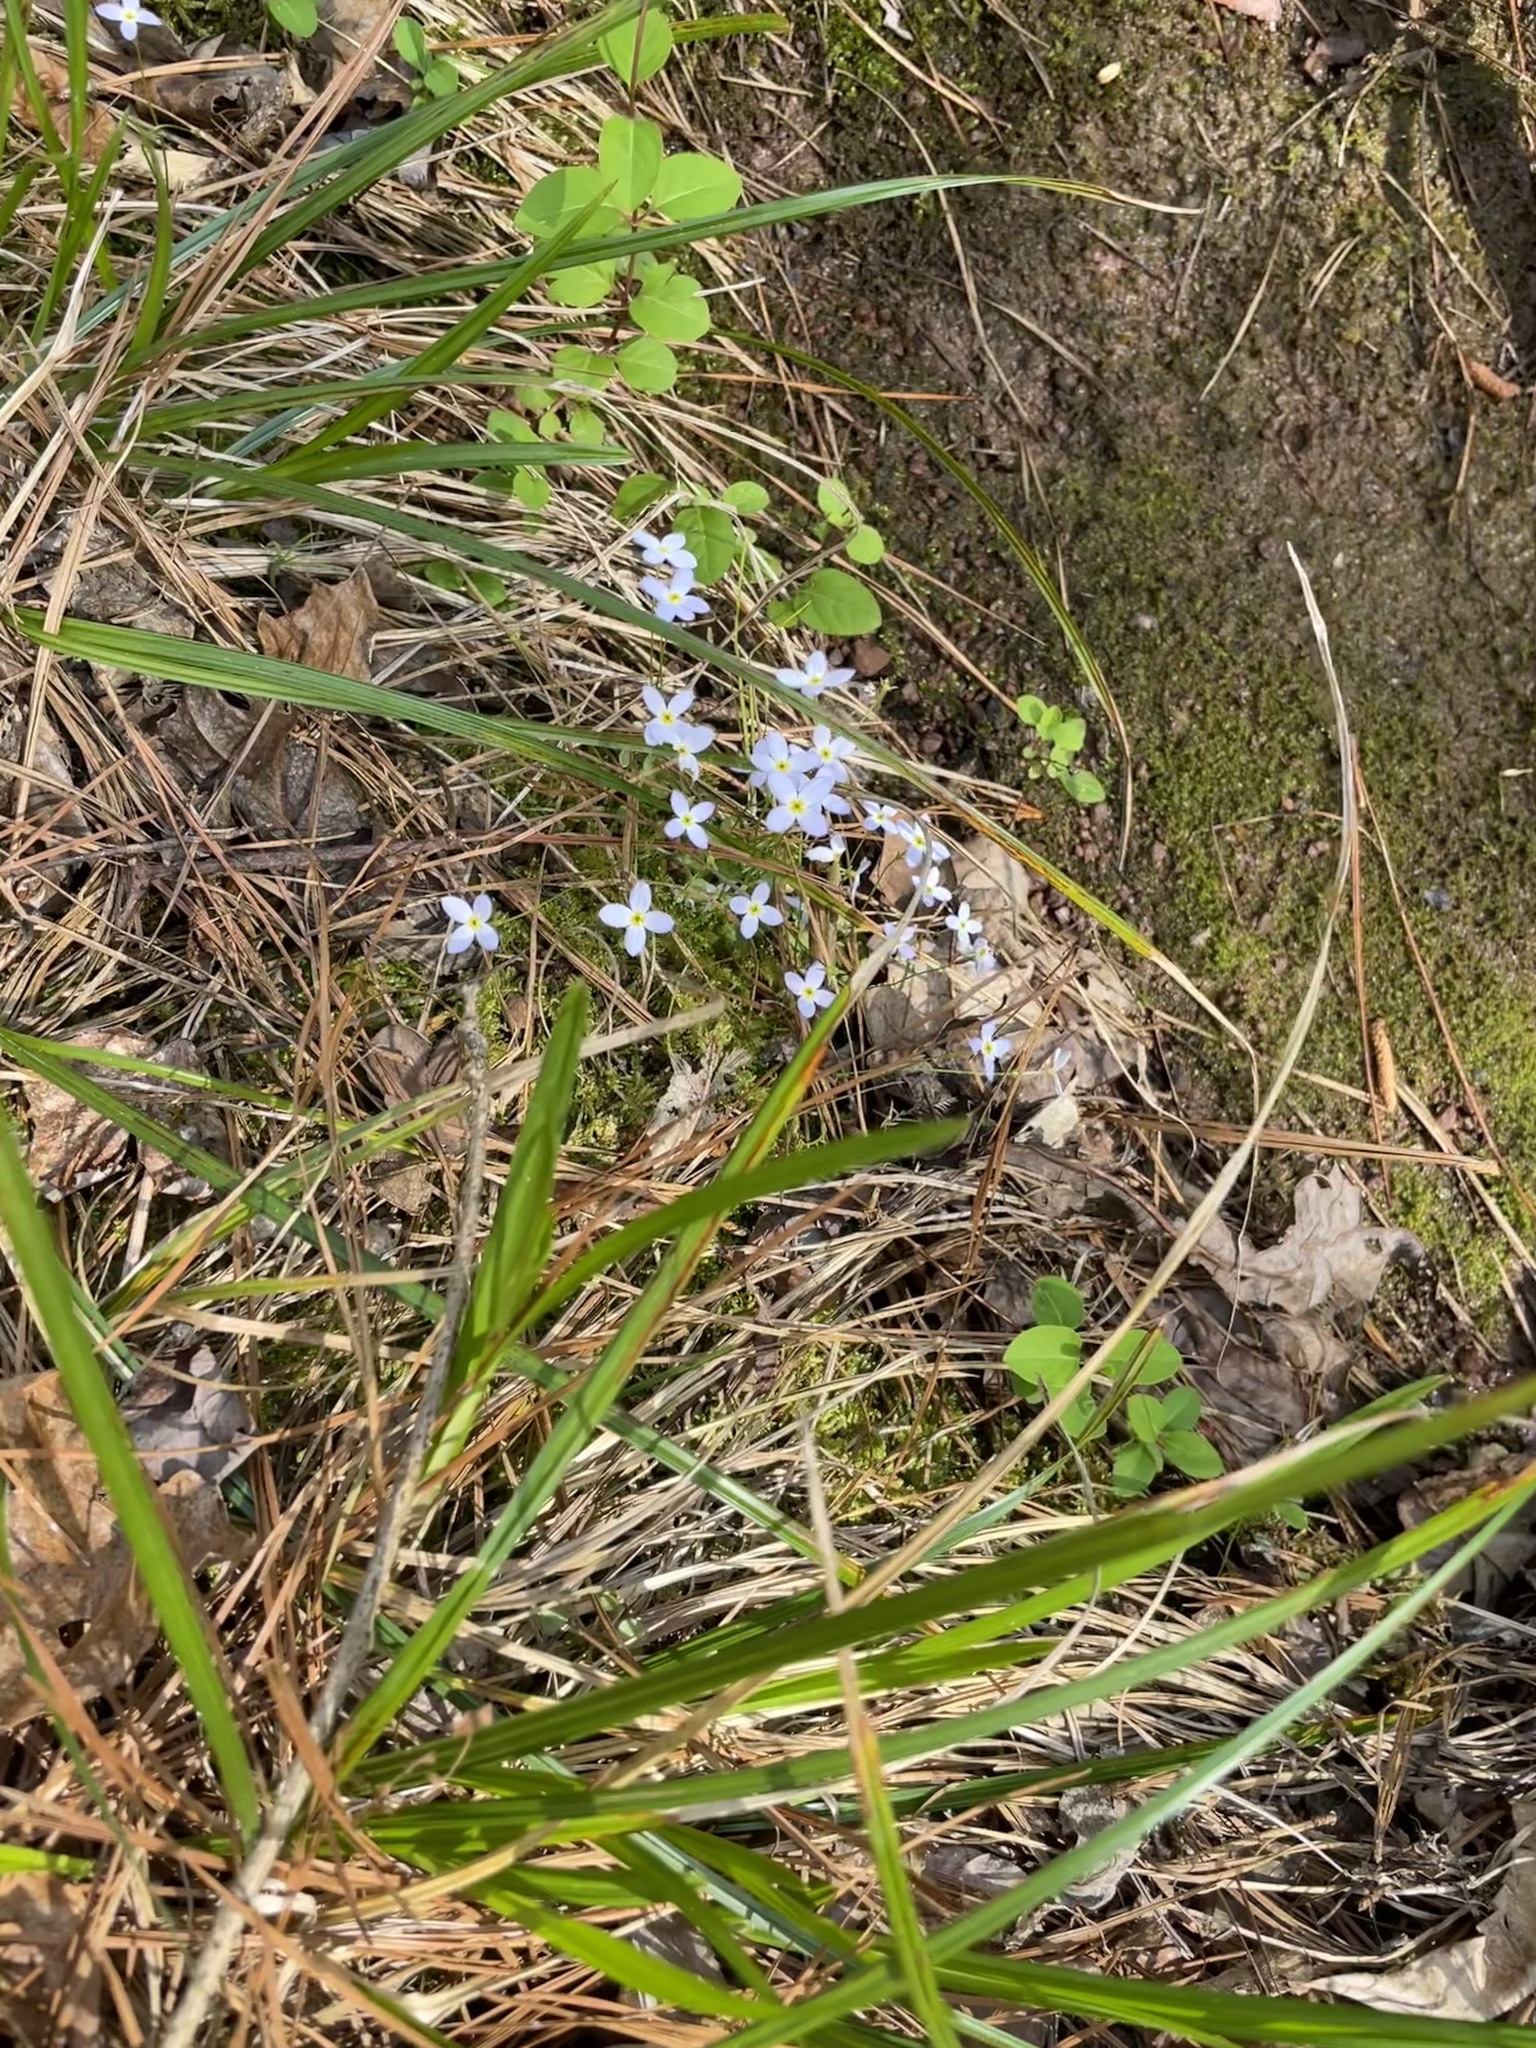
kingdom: Plantae
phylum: Tracheophyta
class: Magnoliopsida
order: Gentianales
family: Rubiaceae
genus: Houstonia
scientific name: Houstonia caerulea
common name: Bluets
